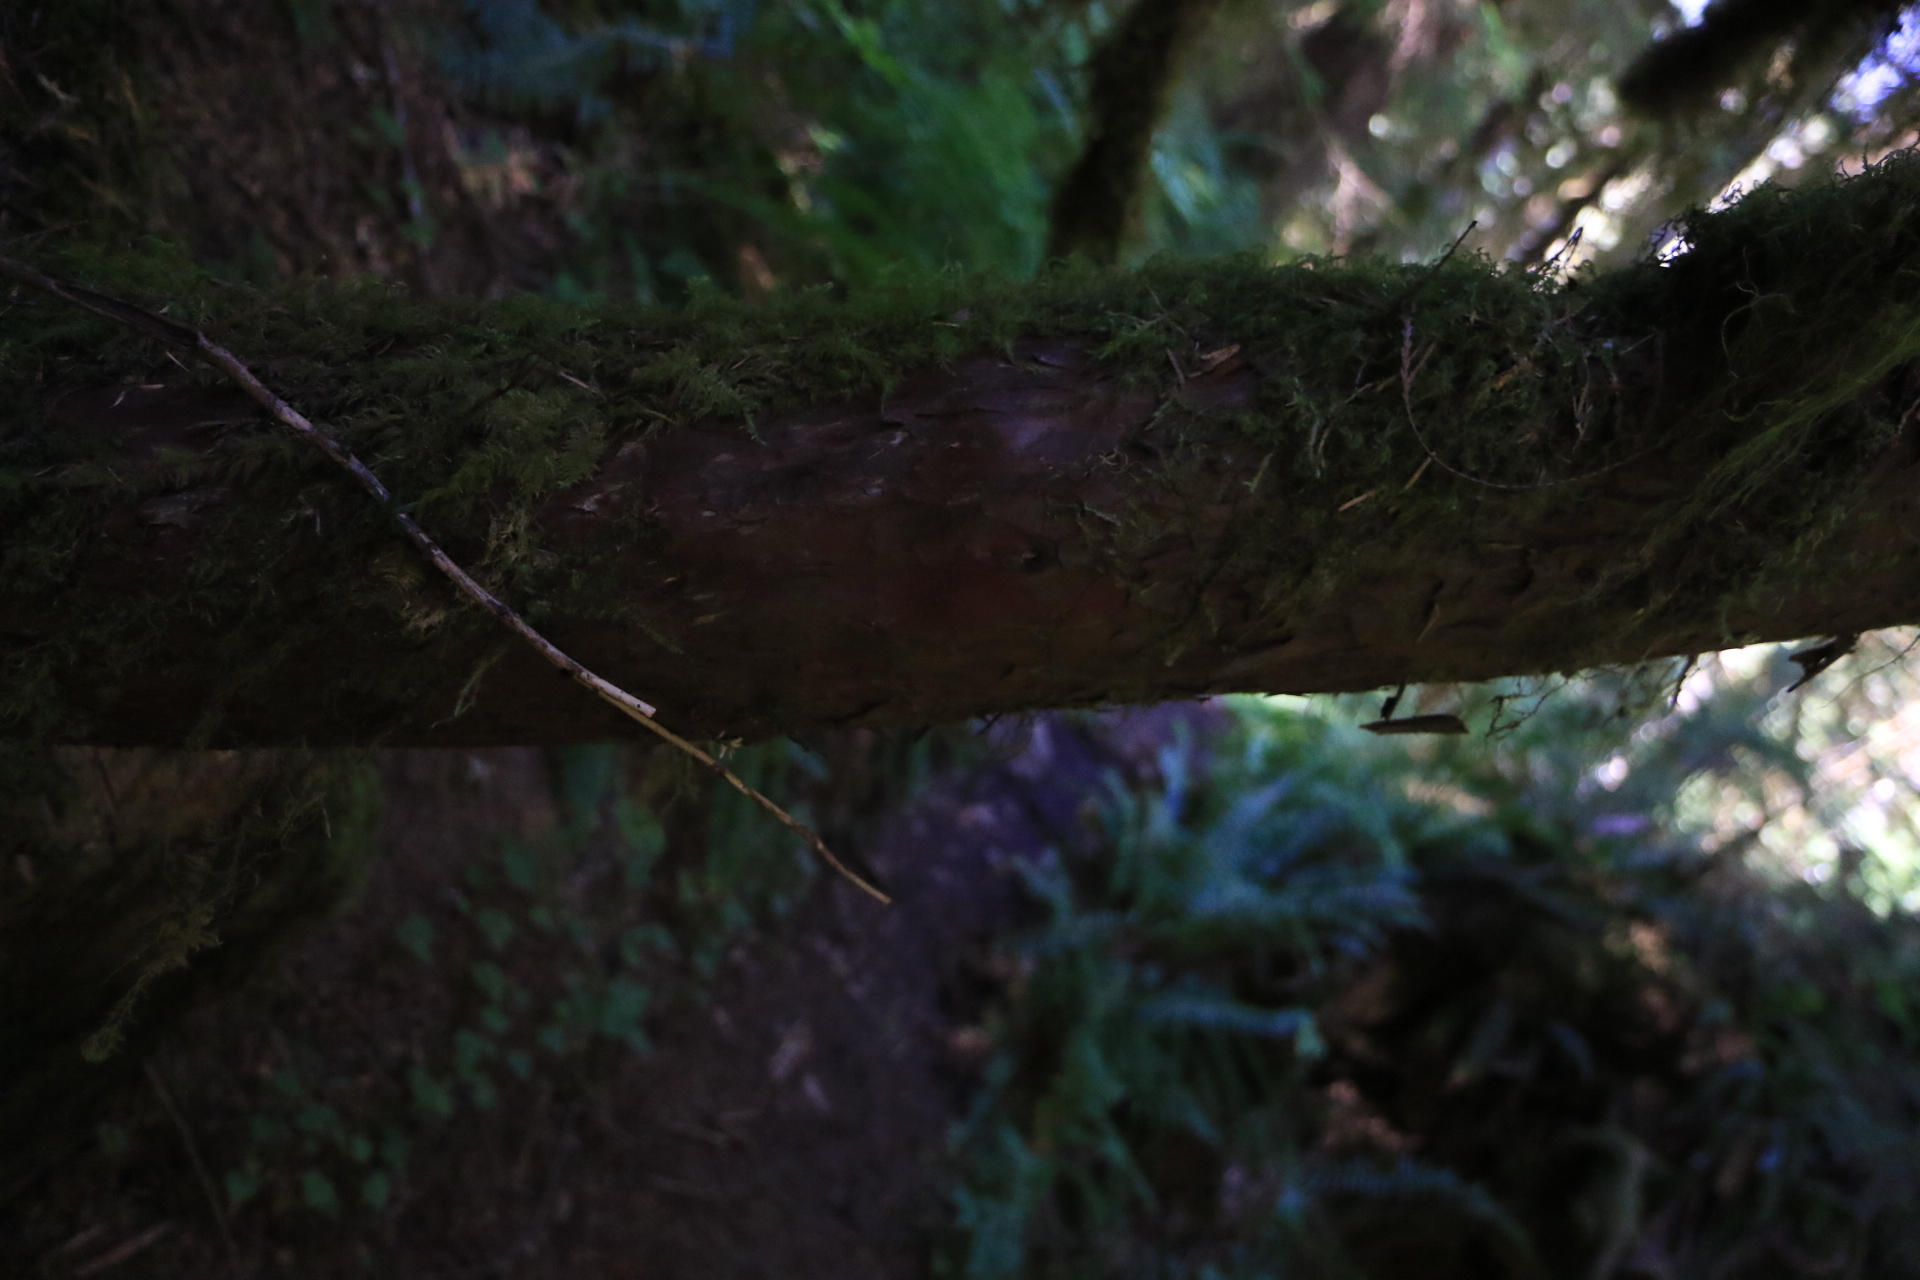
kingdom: Plantae
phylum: Tracheophyta
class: Pinopsida
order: Pinales
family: Taxaceae
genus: Taxus
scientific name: Taxus brevifolia
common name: Pacific yew
